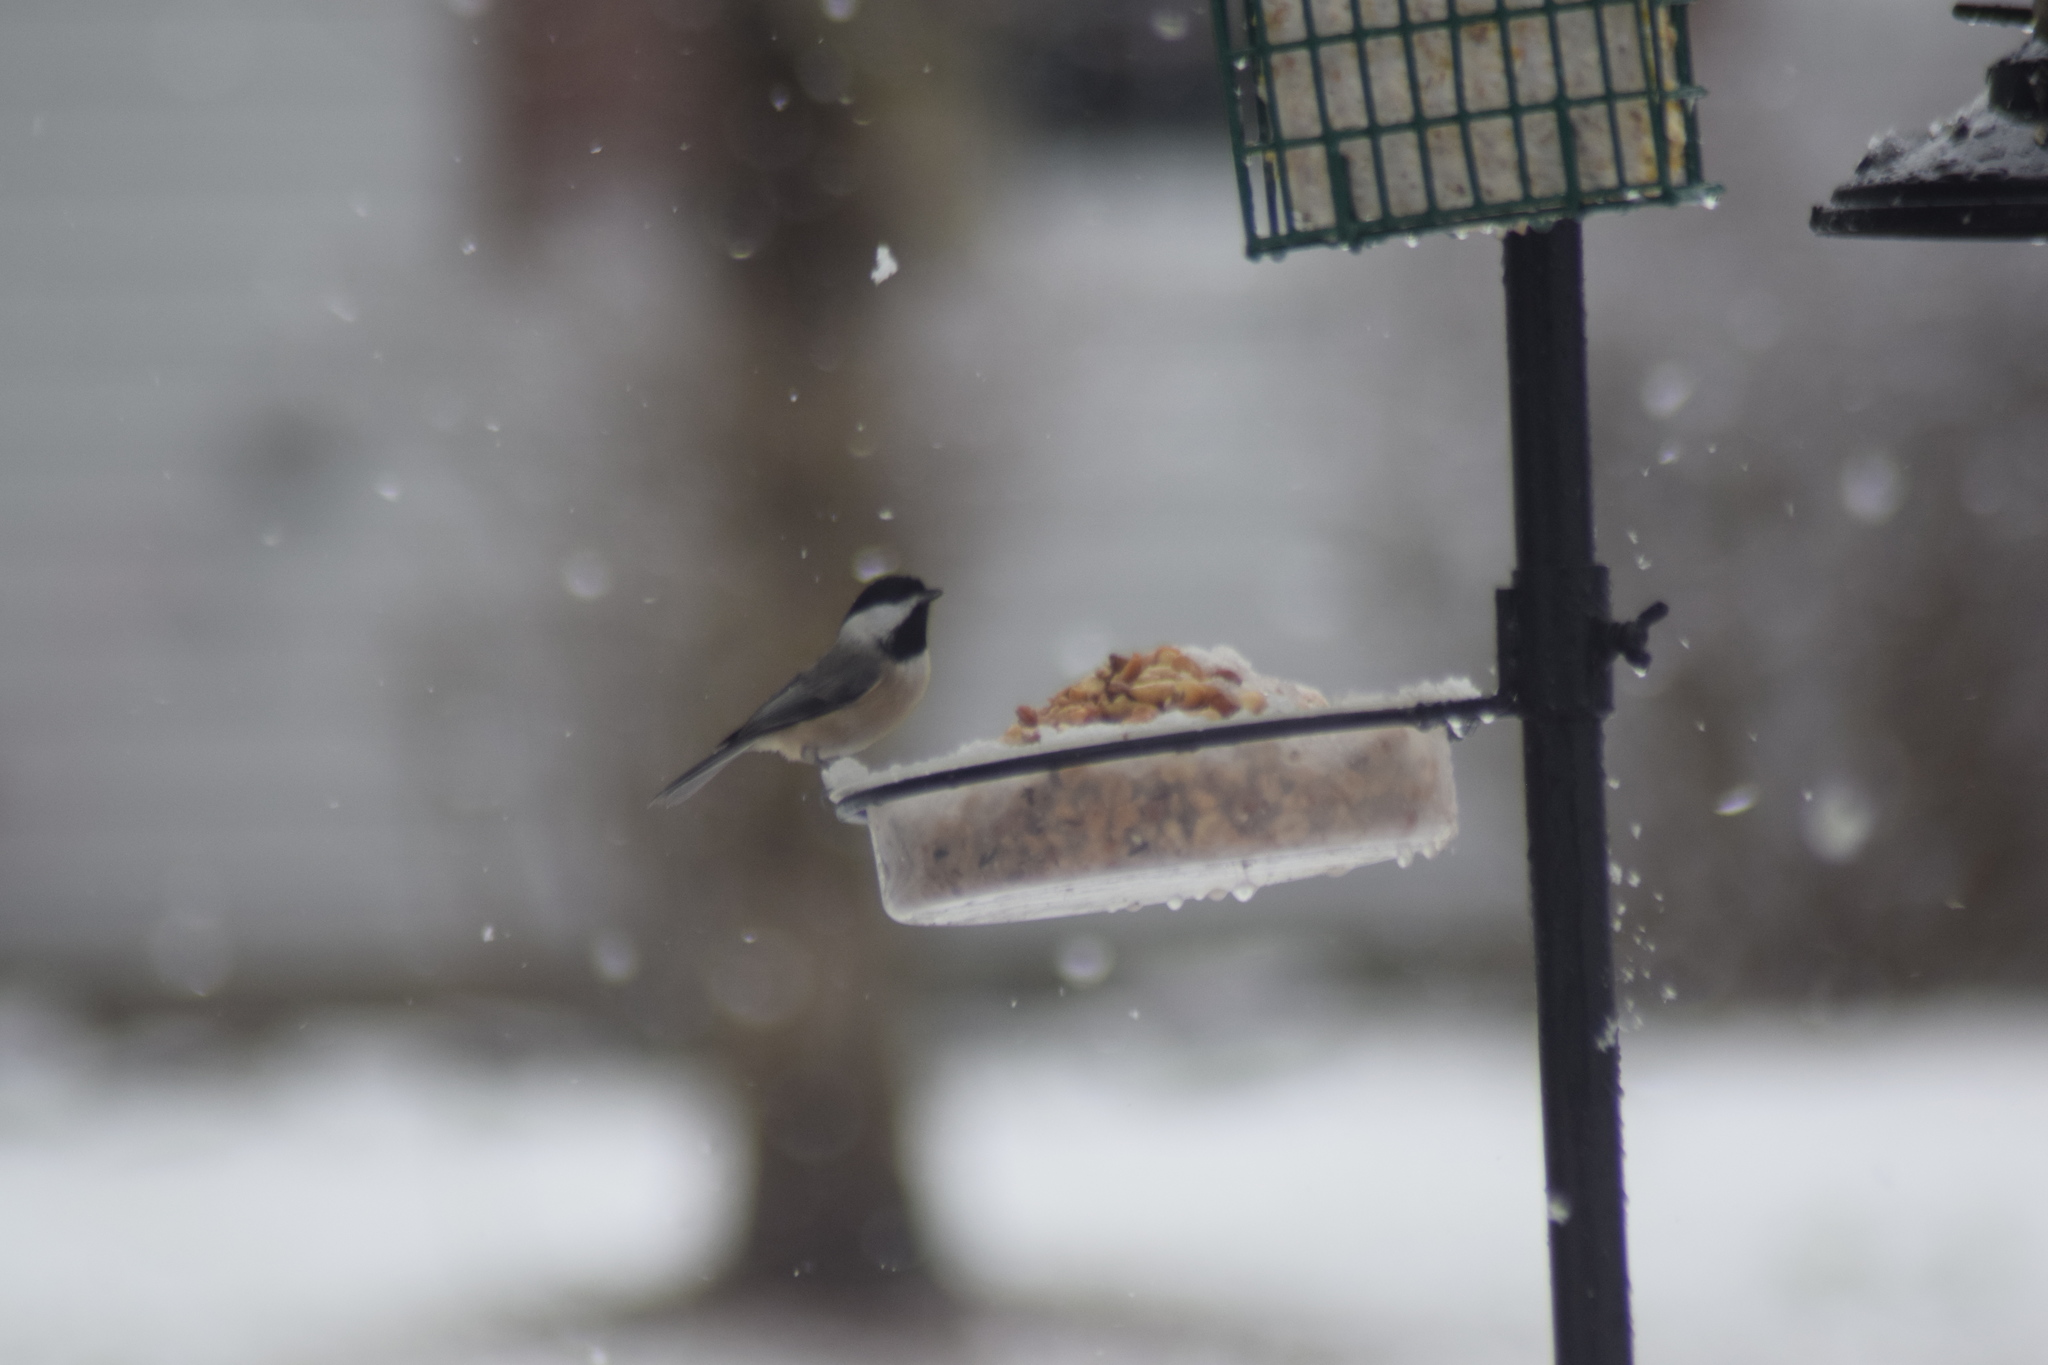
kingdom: Animalia
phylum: Chordata
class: Aves
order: Passeriformes
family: Paridae
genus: Poecile
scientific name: Poecile carolinensis
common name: Carolina chickadee
